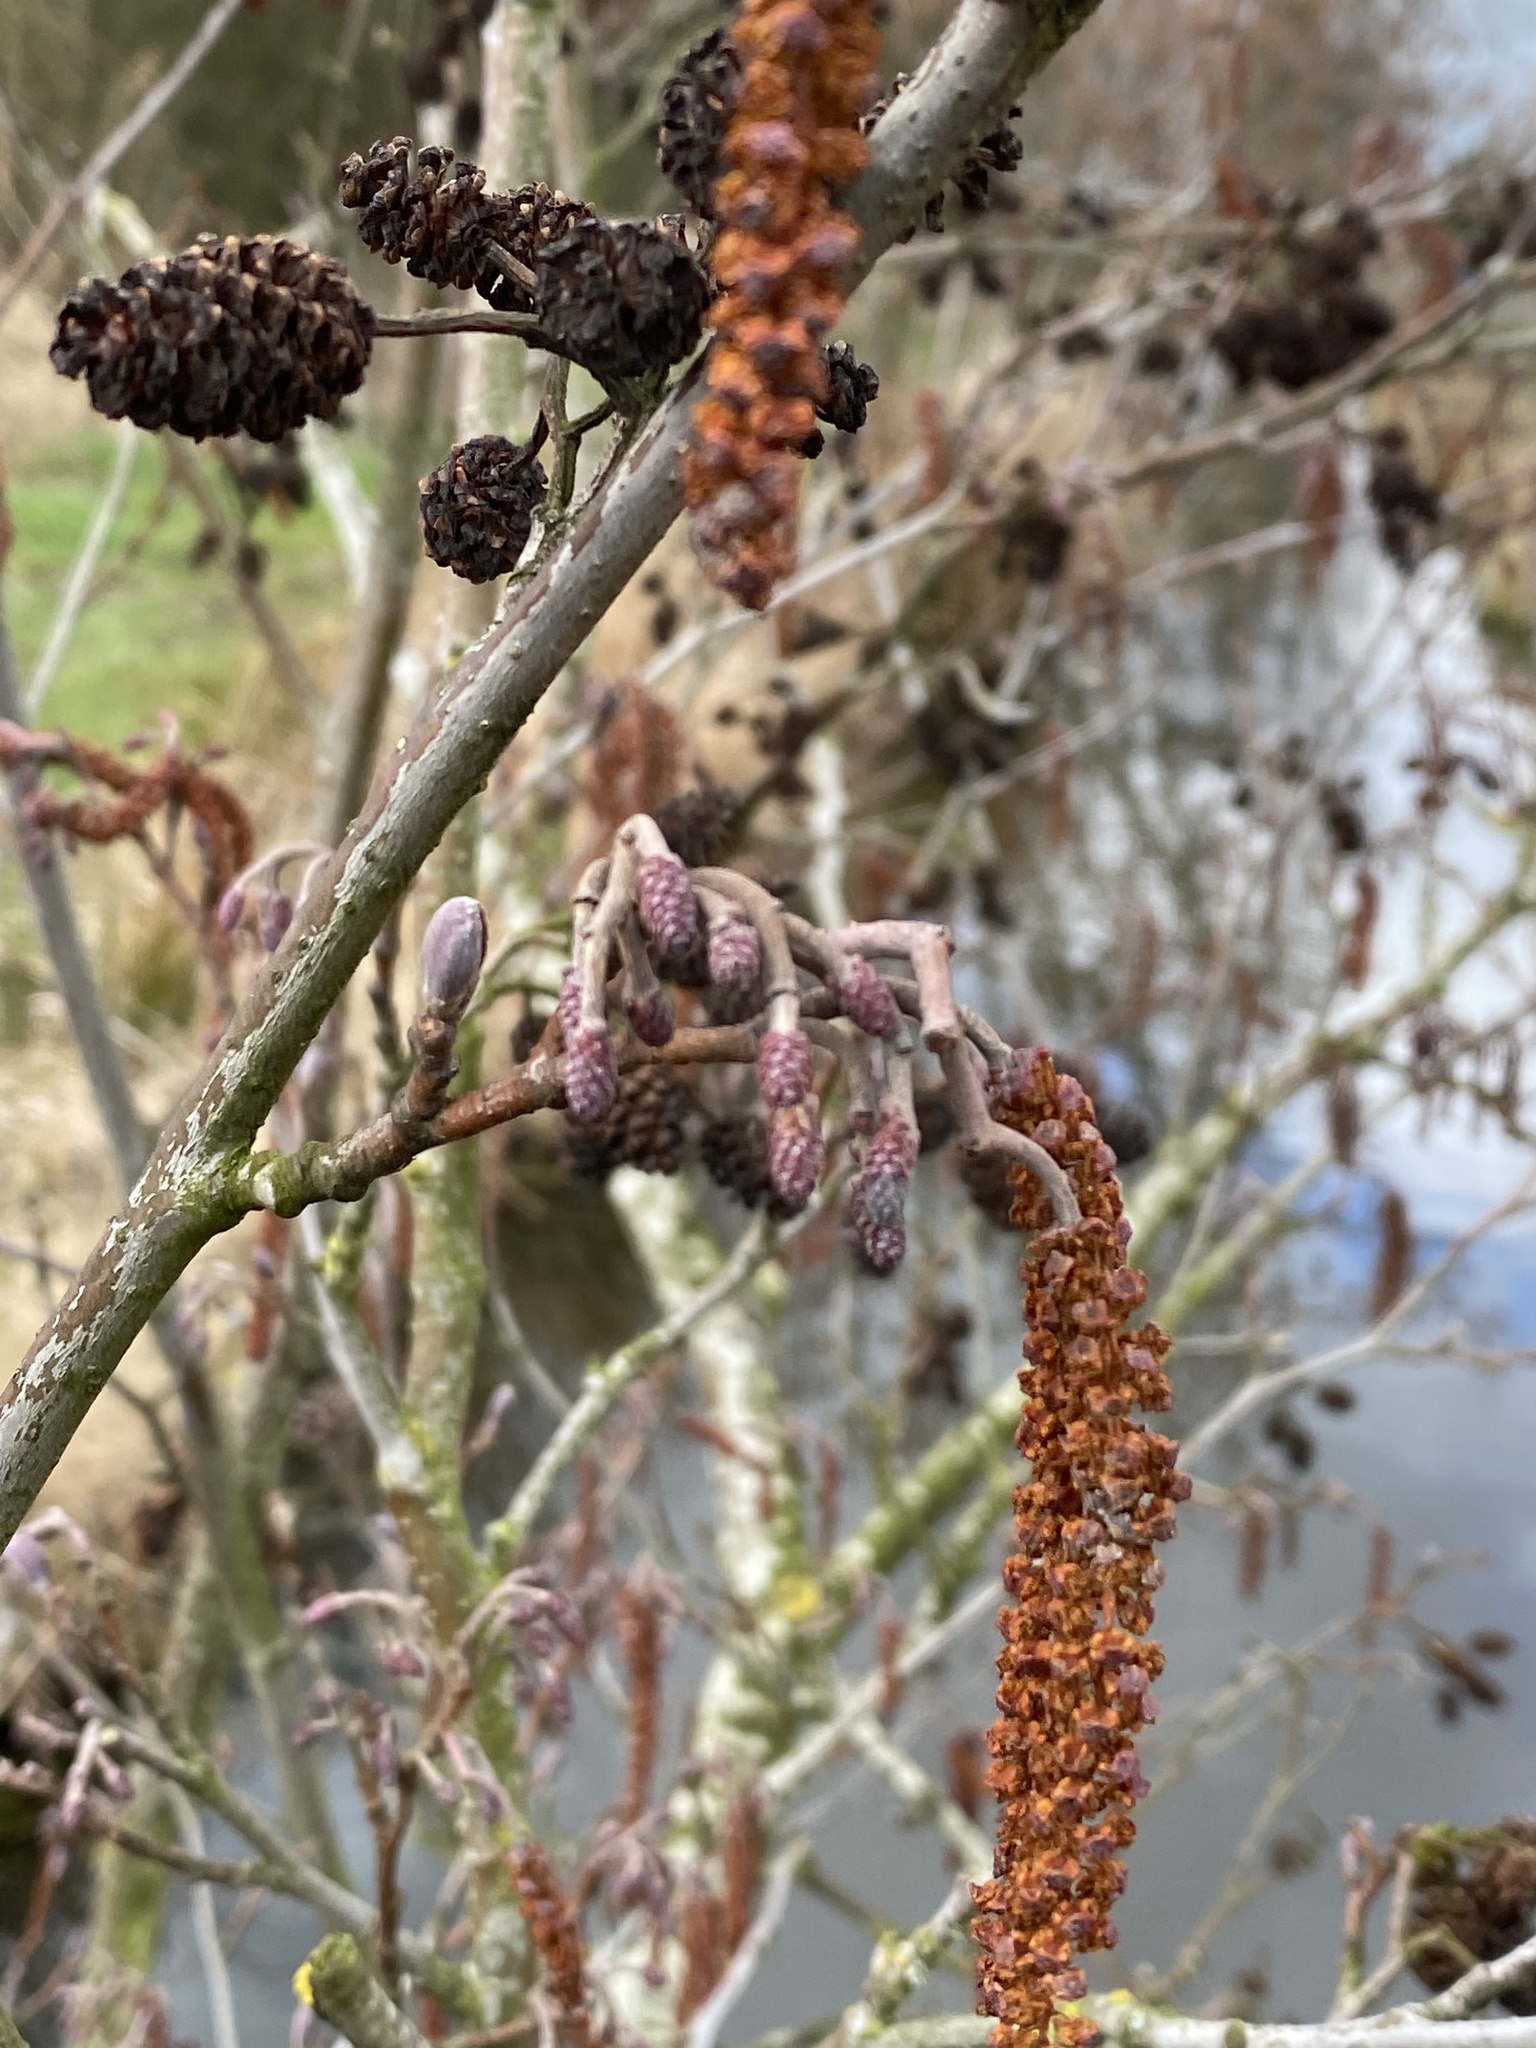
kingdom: Plantae
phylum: Tracheophyta
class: Magnoliopsida
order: Fagales
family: Betulaceae
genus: Alnus
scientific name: Alnus glutinosa
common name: Black alder
